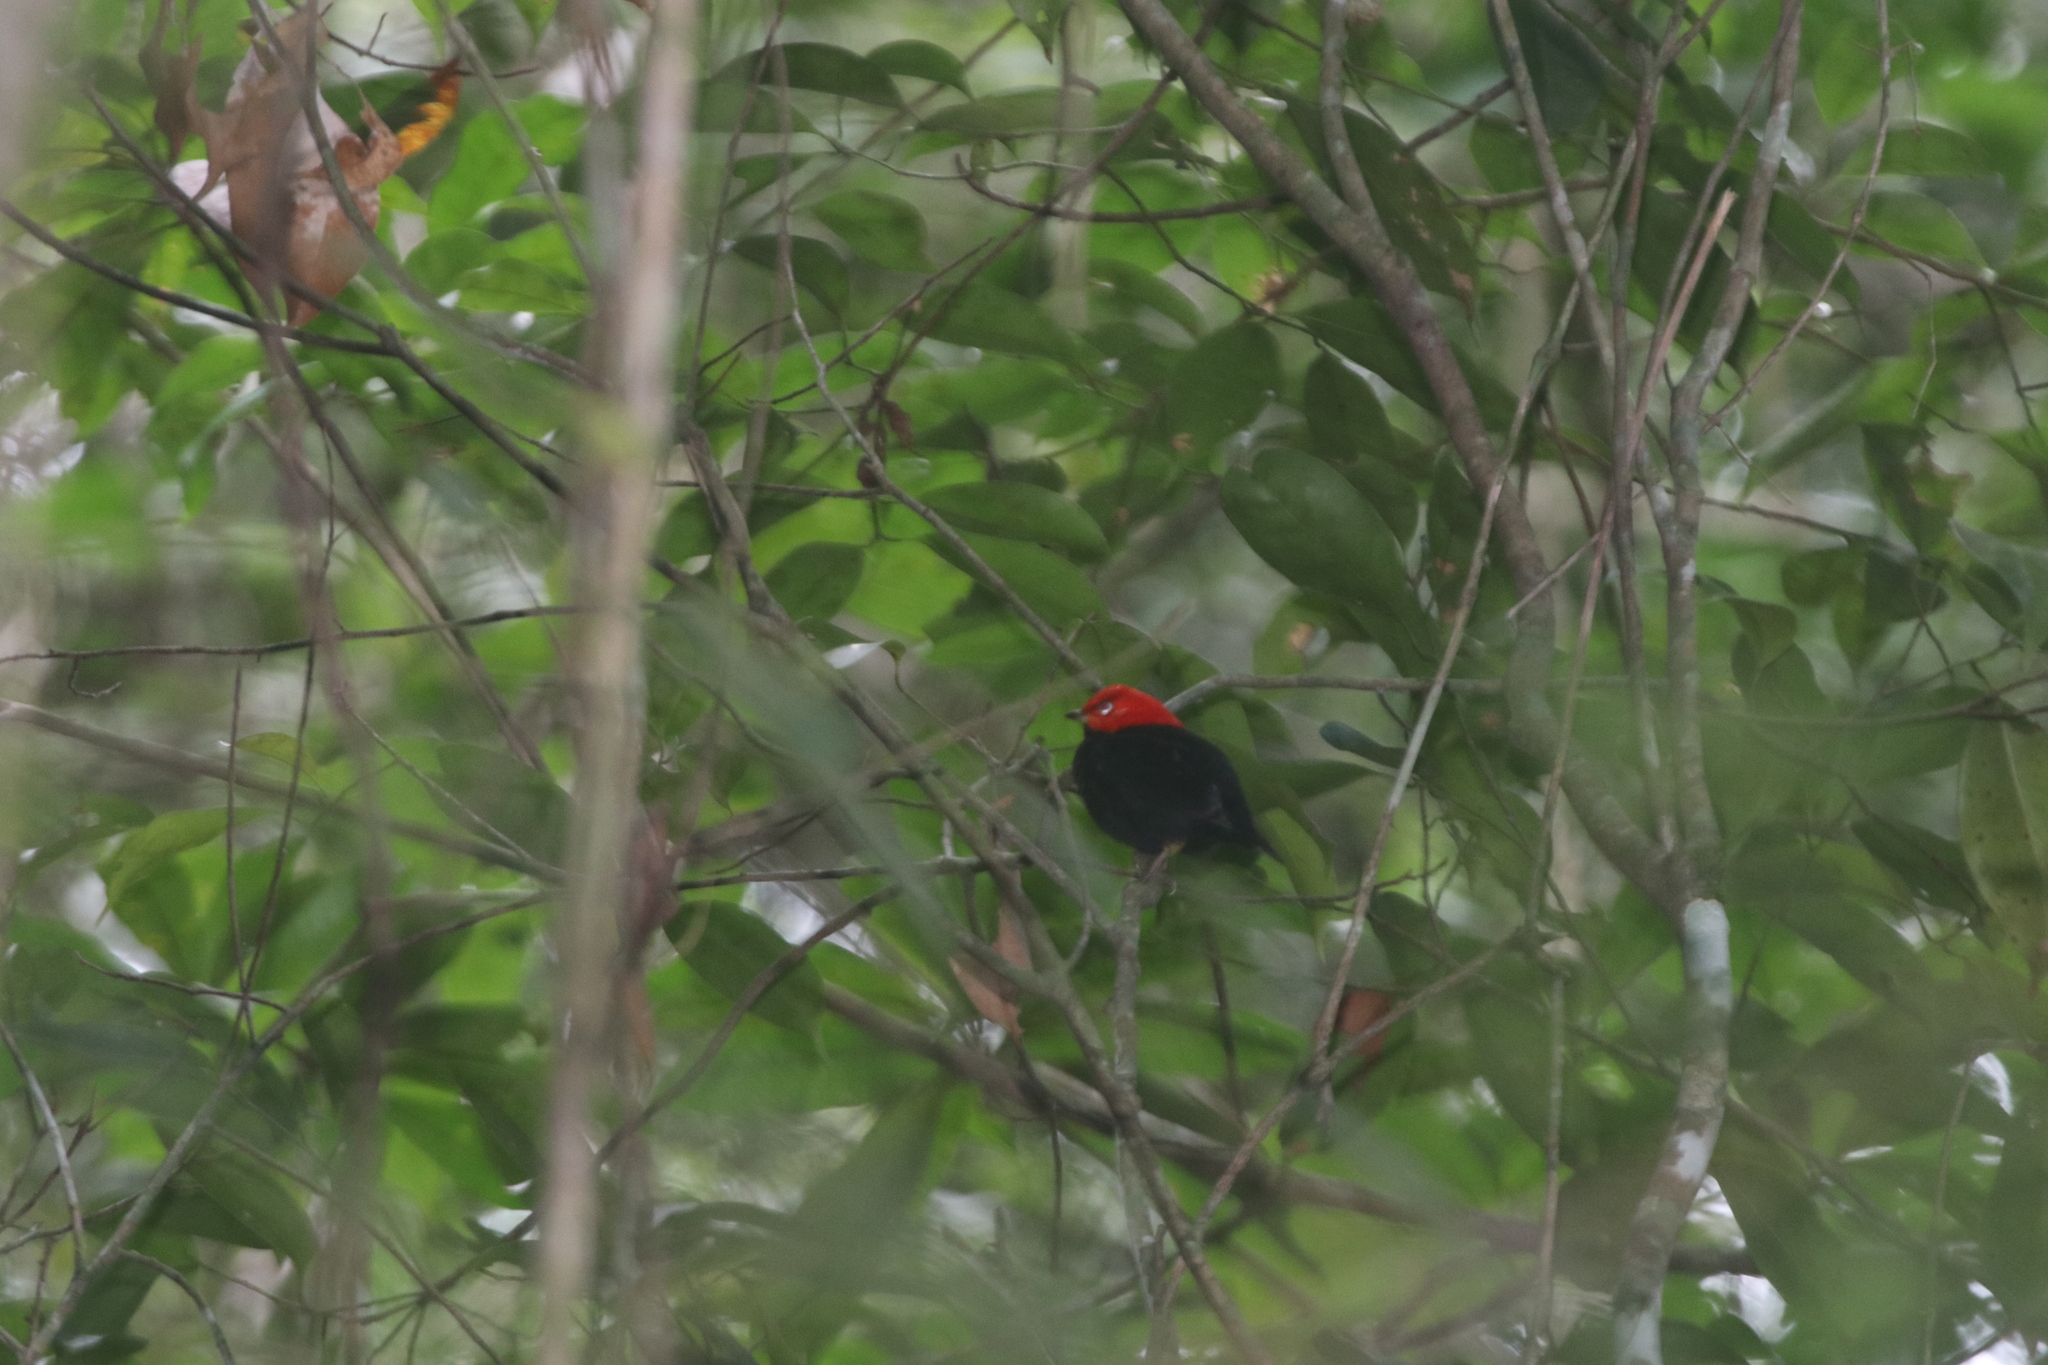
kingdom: Animalia
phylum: Chordata
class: Aves
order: Passeriformes
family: Pipridae
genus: Pipra
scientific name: Pipra mentalis
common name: Red-capped manakin
